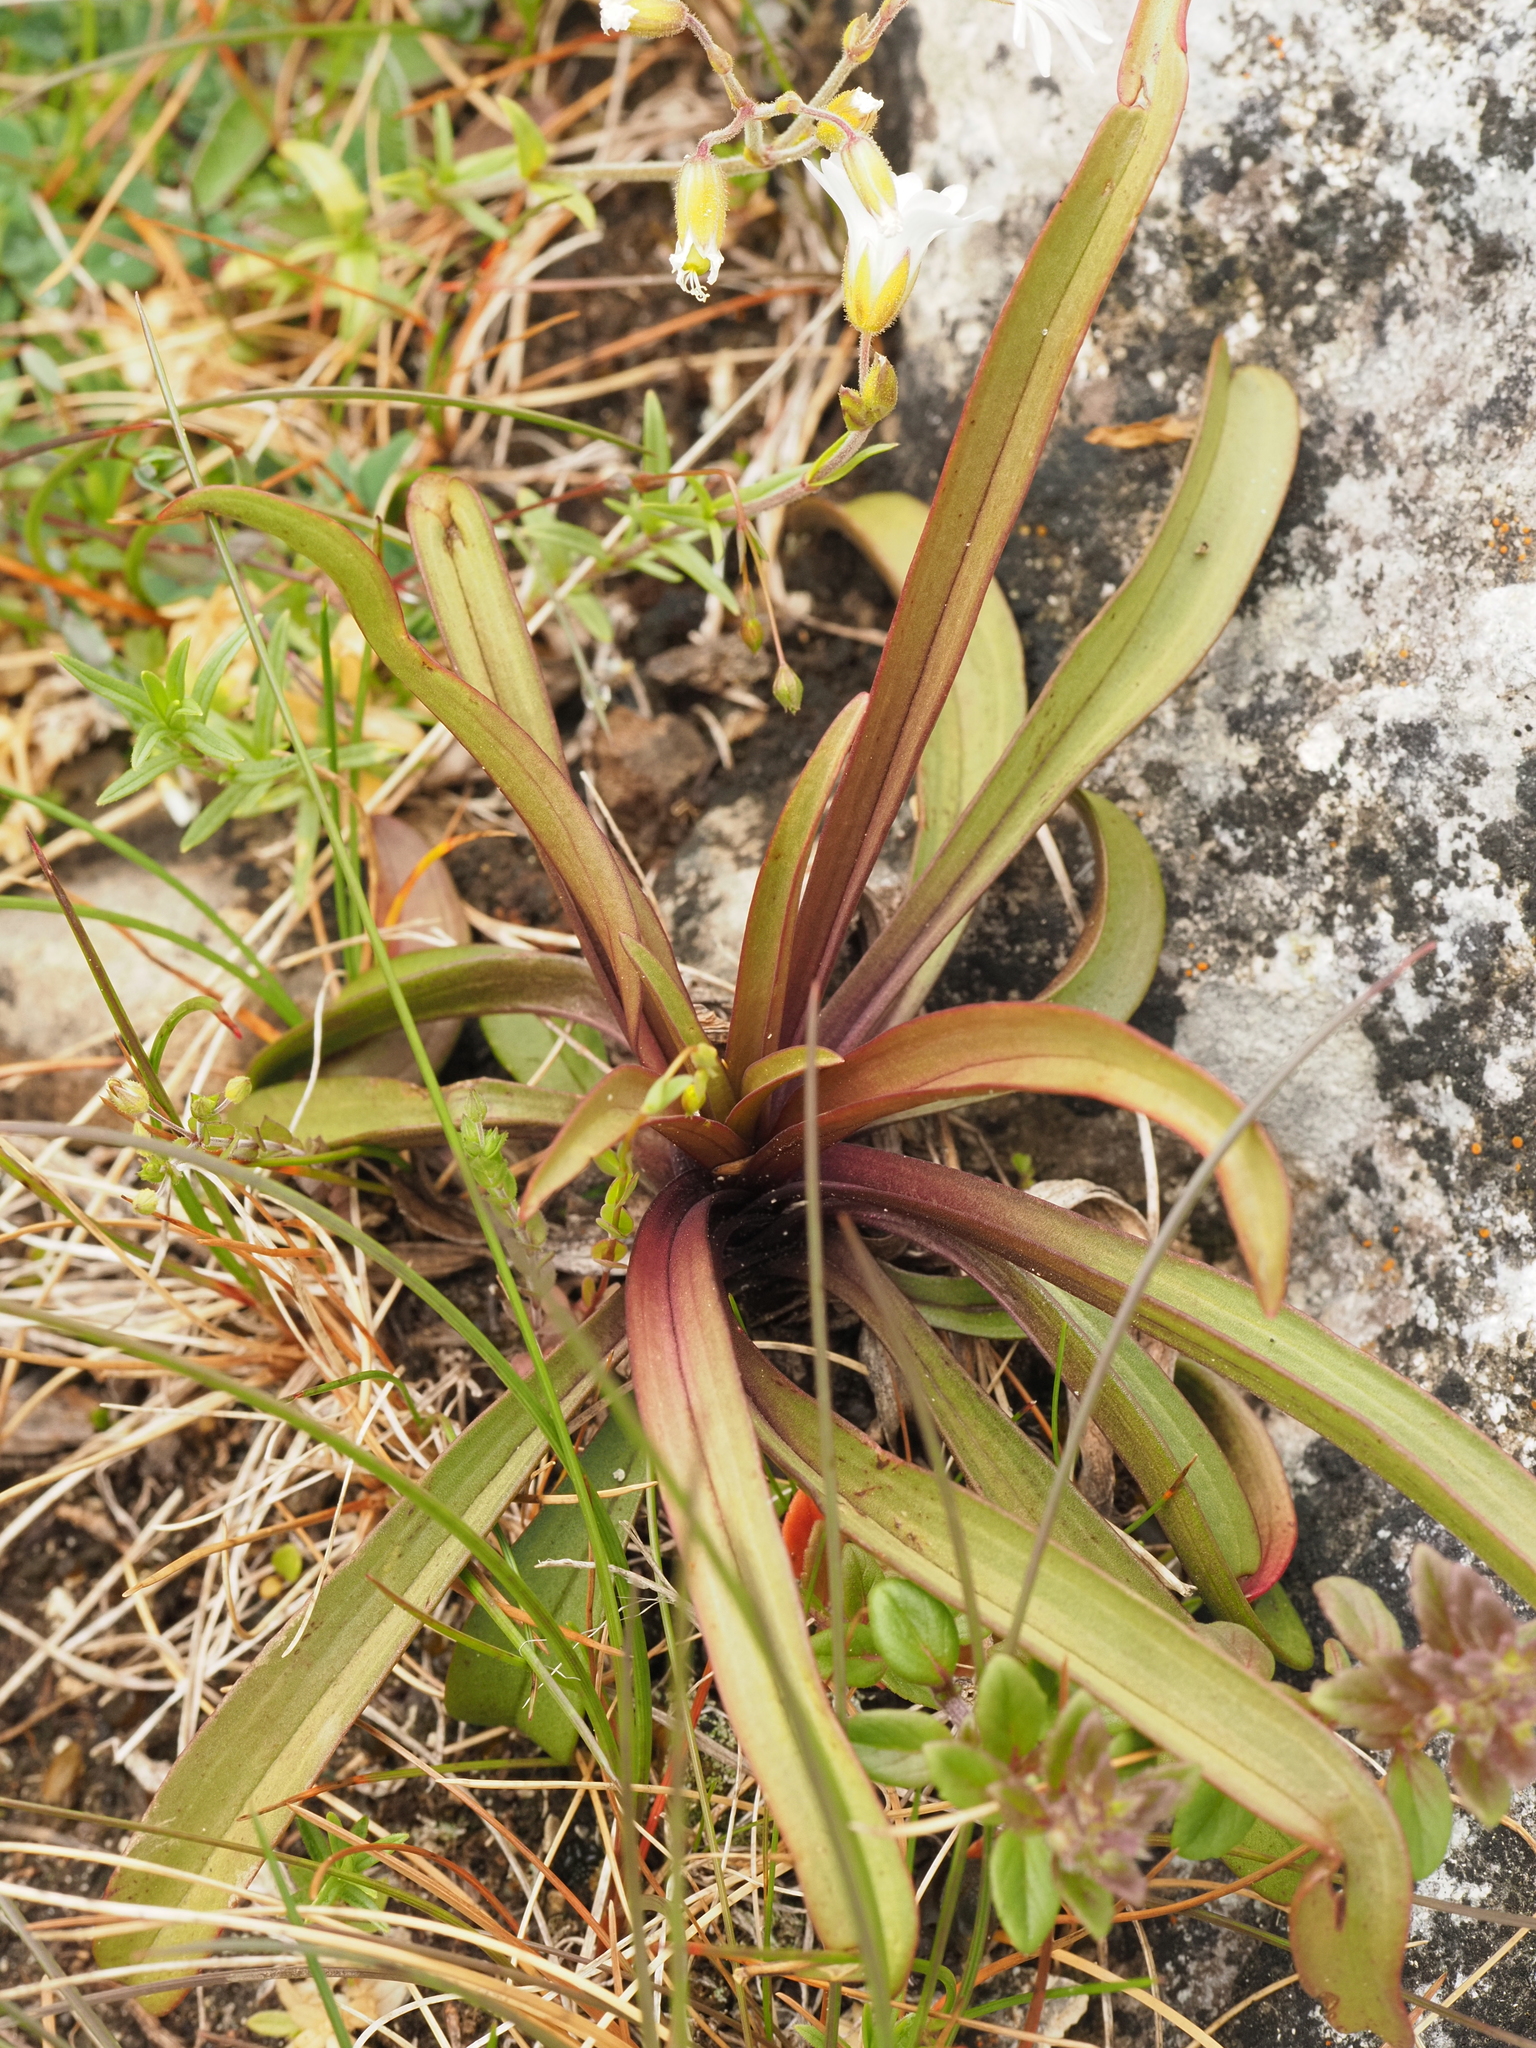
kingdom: Plantae
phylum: Tracheophyta
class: Magnoliopsida
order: Gentianales
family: Gentianaceae
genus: Gentianella
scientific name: Gentianella corymbifera
